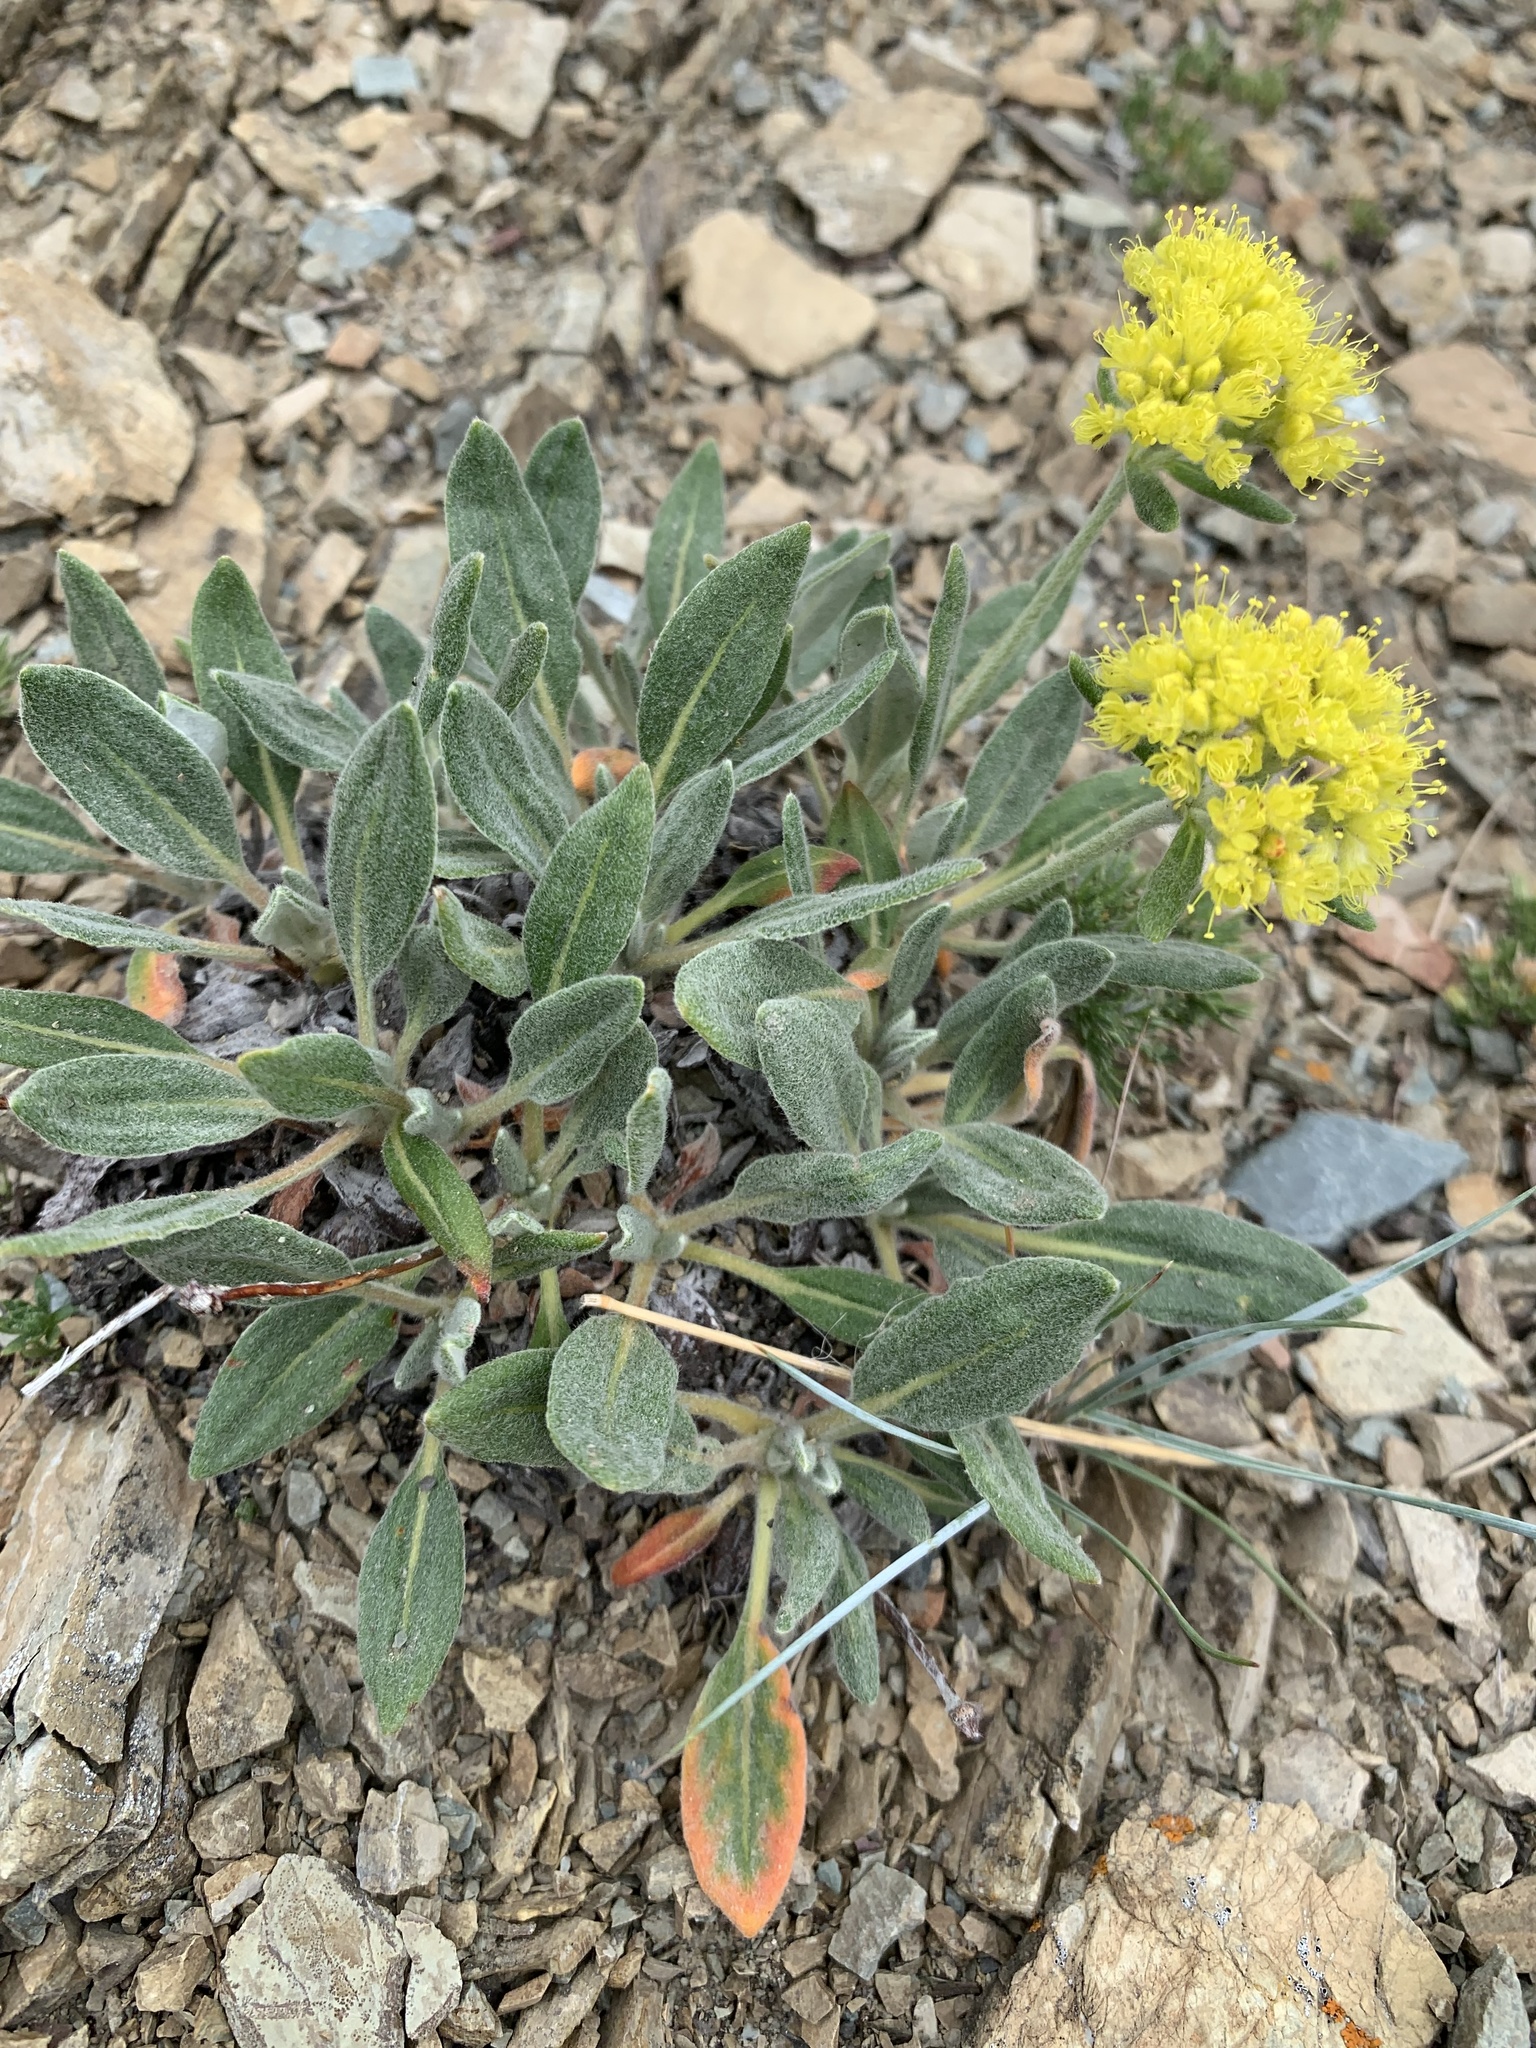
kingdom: Plantae
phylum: Tracheophyta
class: Magnoliopsida
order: Caryophyllales
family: Polygonaceae
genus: Eriogonum
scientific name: Eriogonum flavum
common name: Alpine golden wild buckwheat
